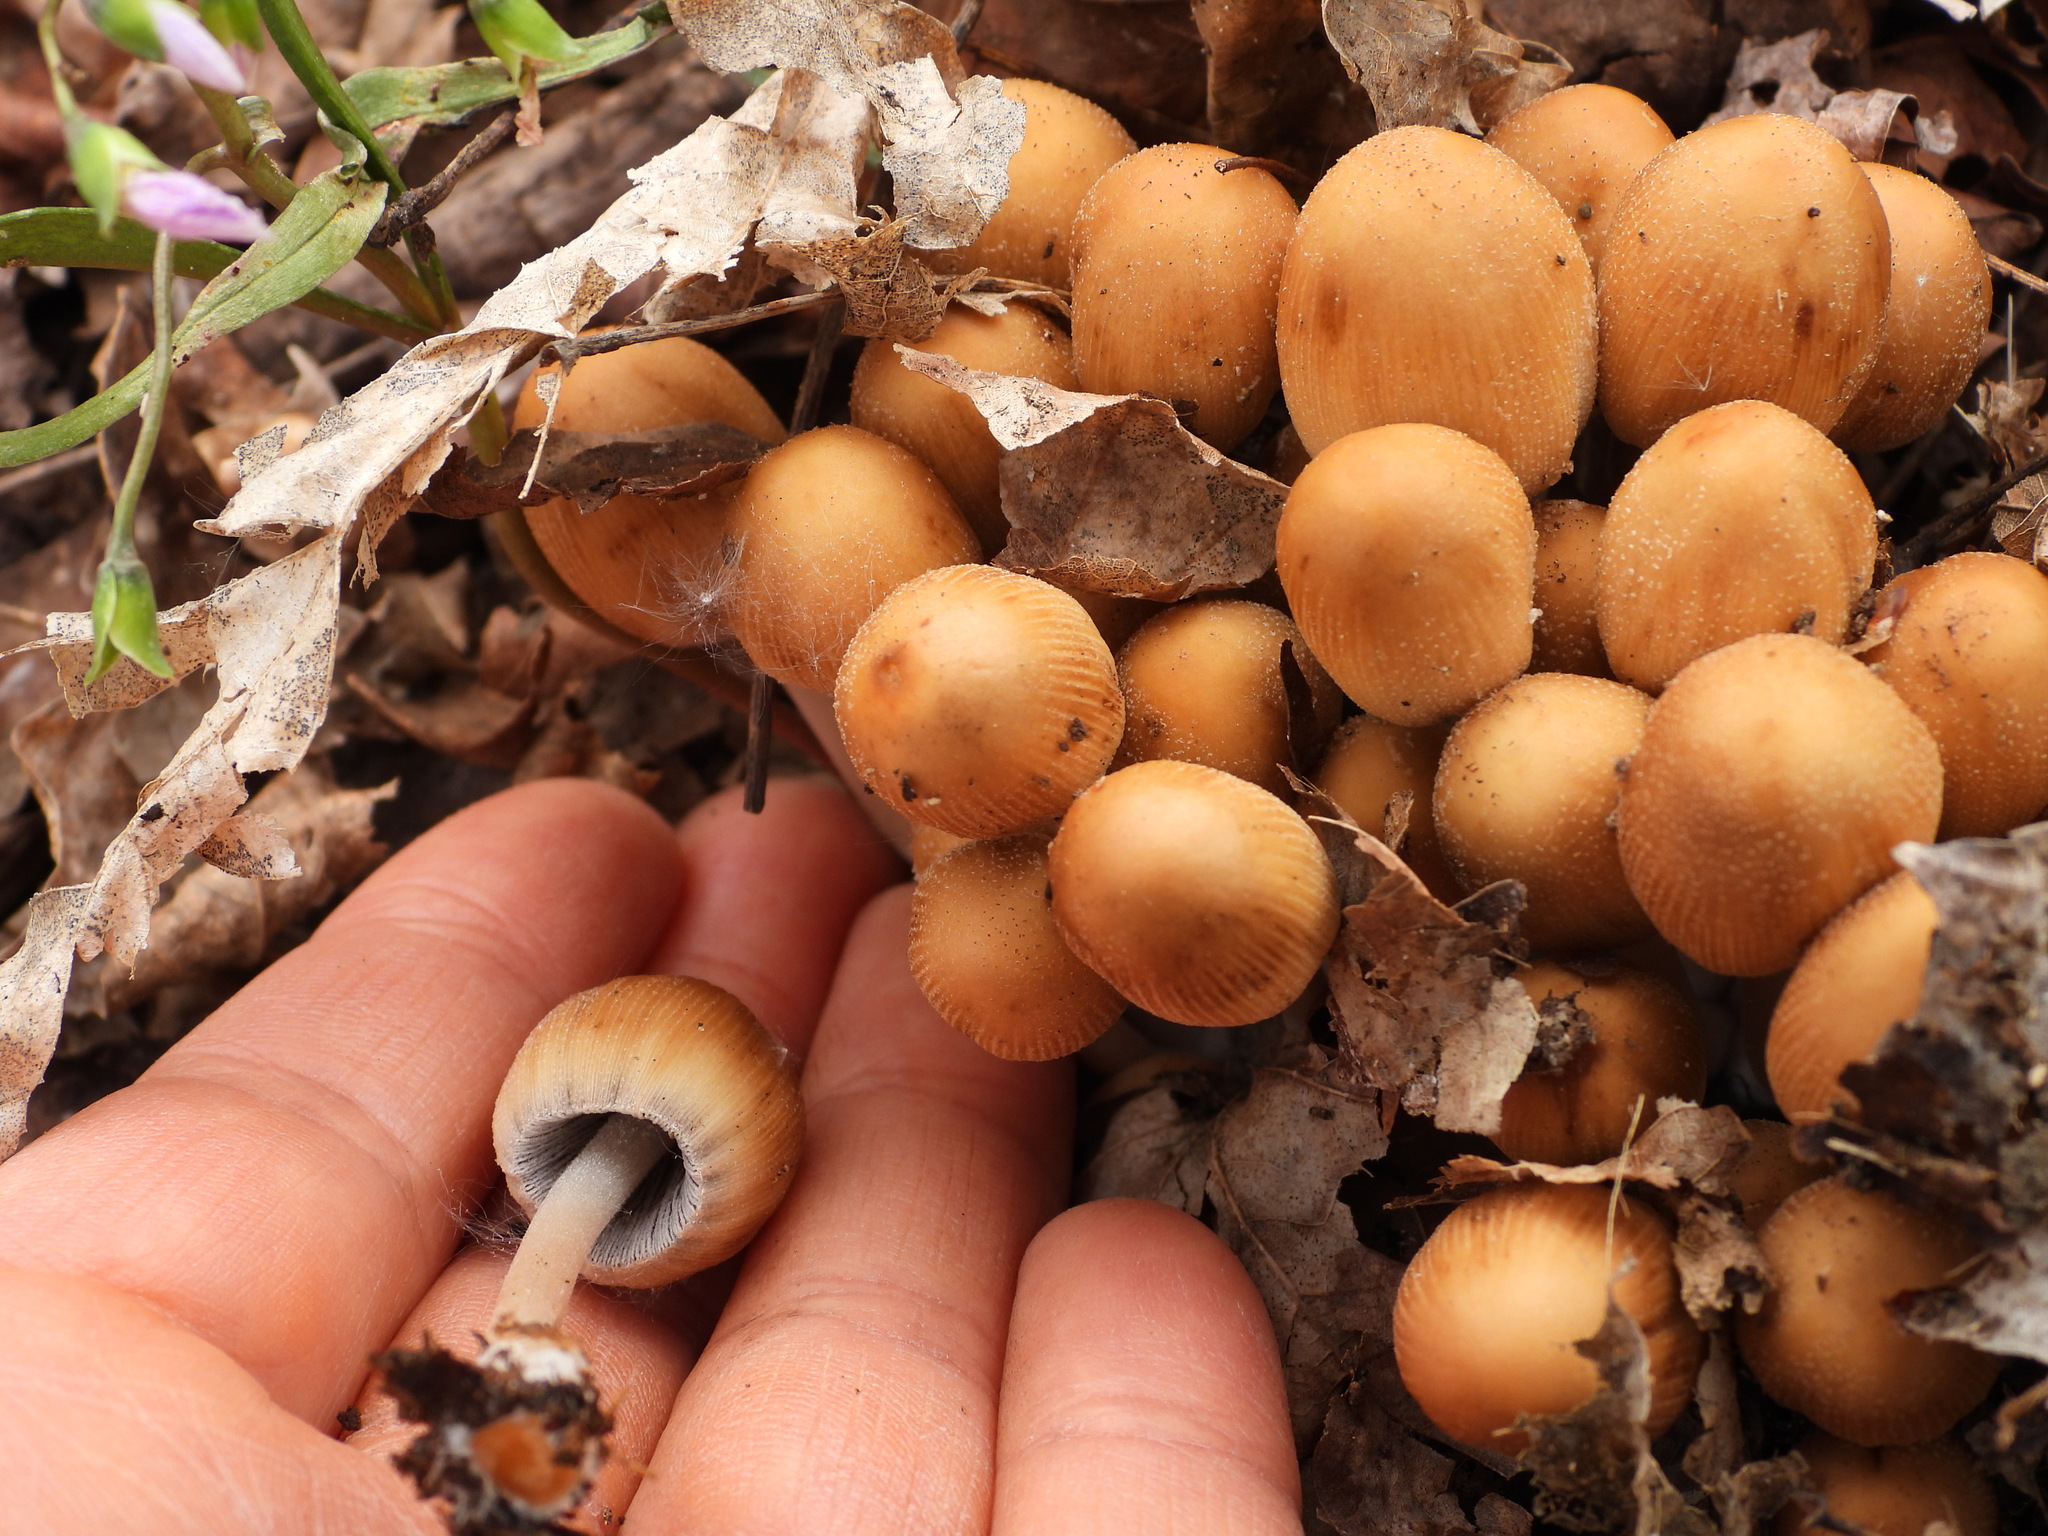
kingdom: Fungi
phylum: Basidiomycota
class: Agaricomycetes
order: Agaricales
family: Psathyrellaceae
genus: Coprinellus
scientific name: Coprinellus micaceus
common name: Glistening ink-cap
